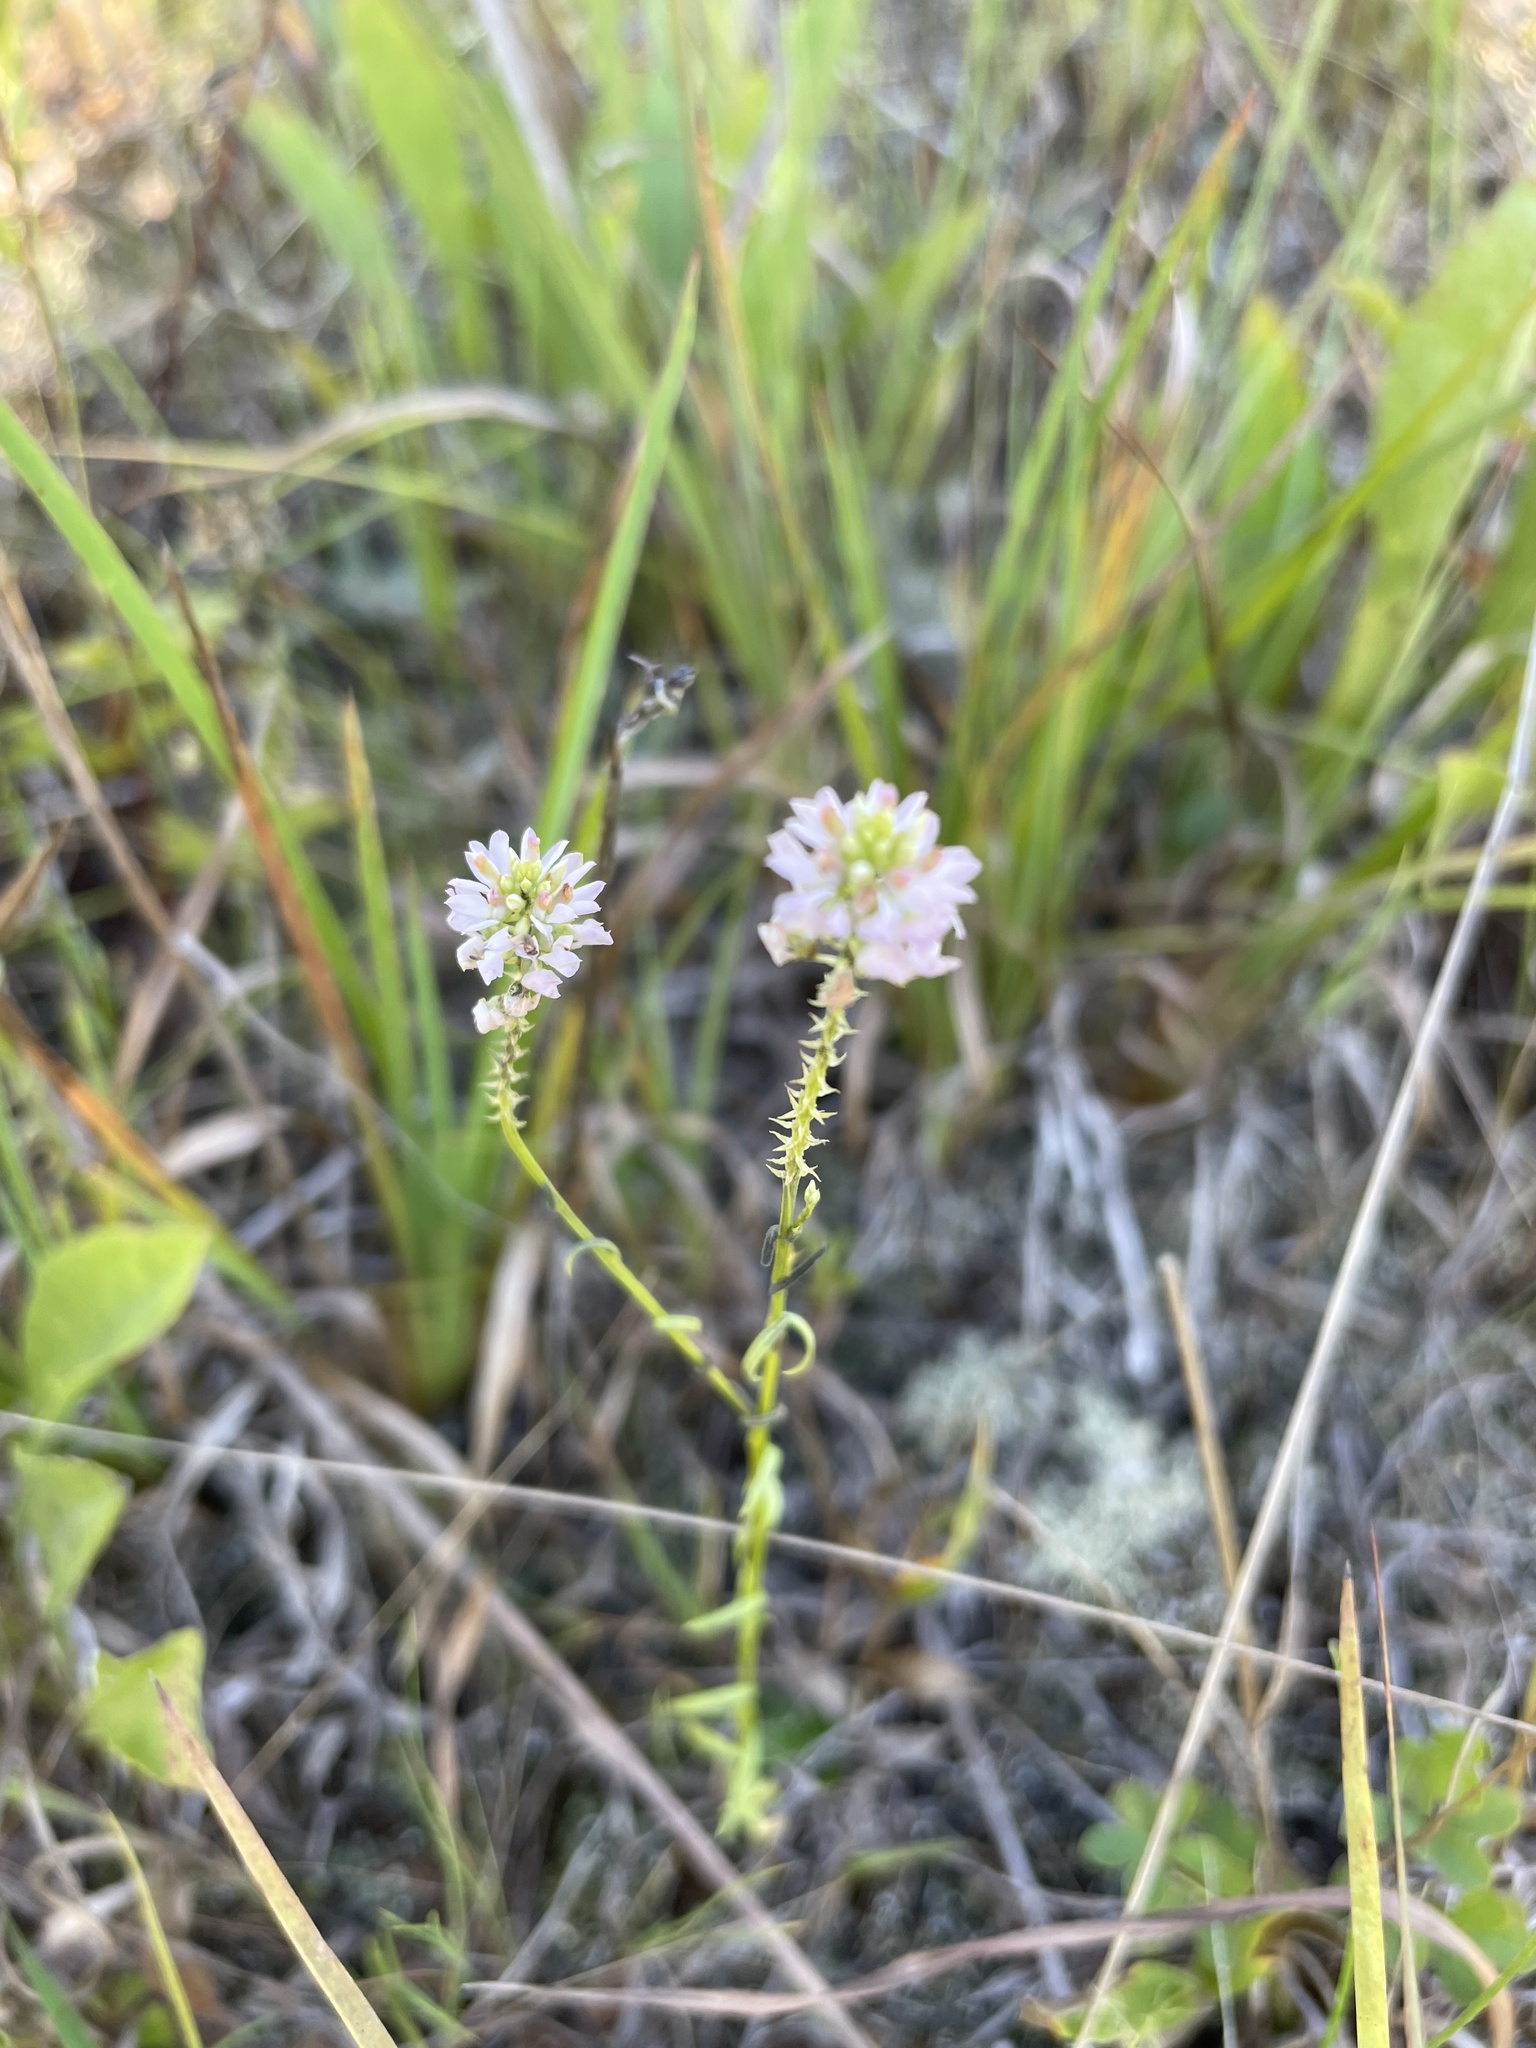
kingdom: Plantae
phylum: Tracheophyta
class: Magnoliopsida
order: Fabales
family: Polygalaceae
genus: Polygala
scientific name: Polygala curtissii
